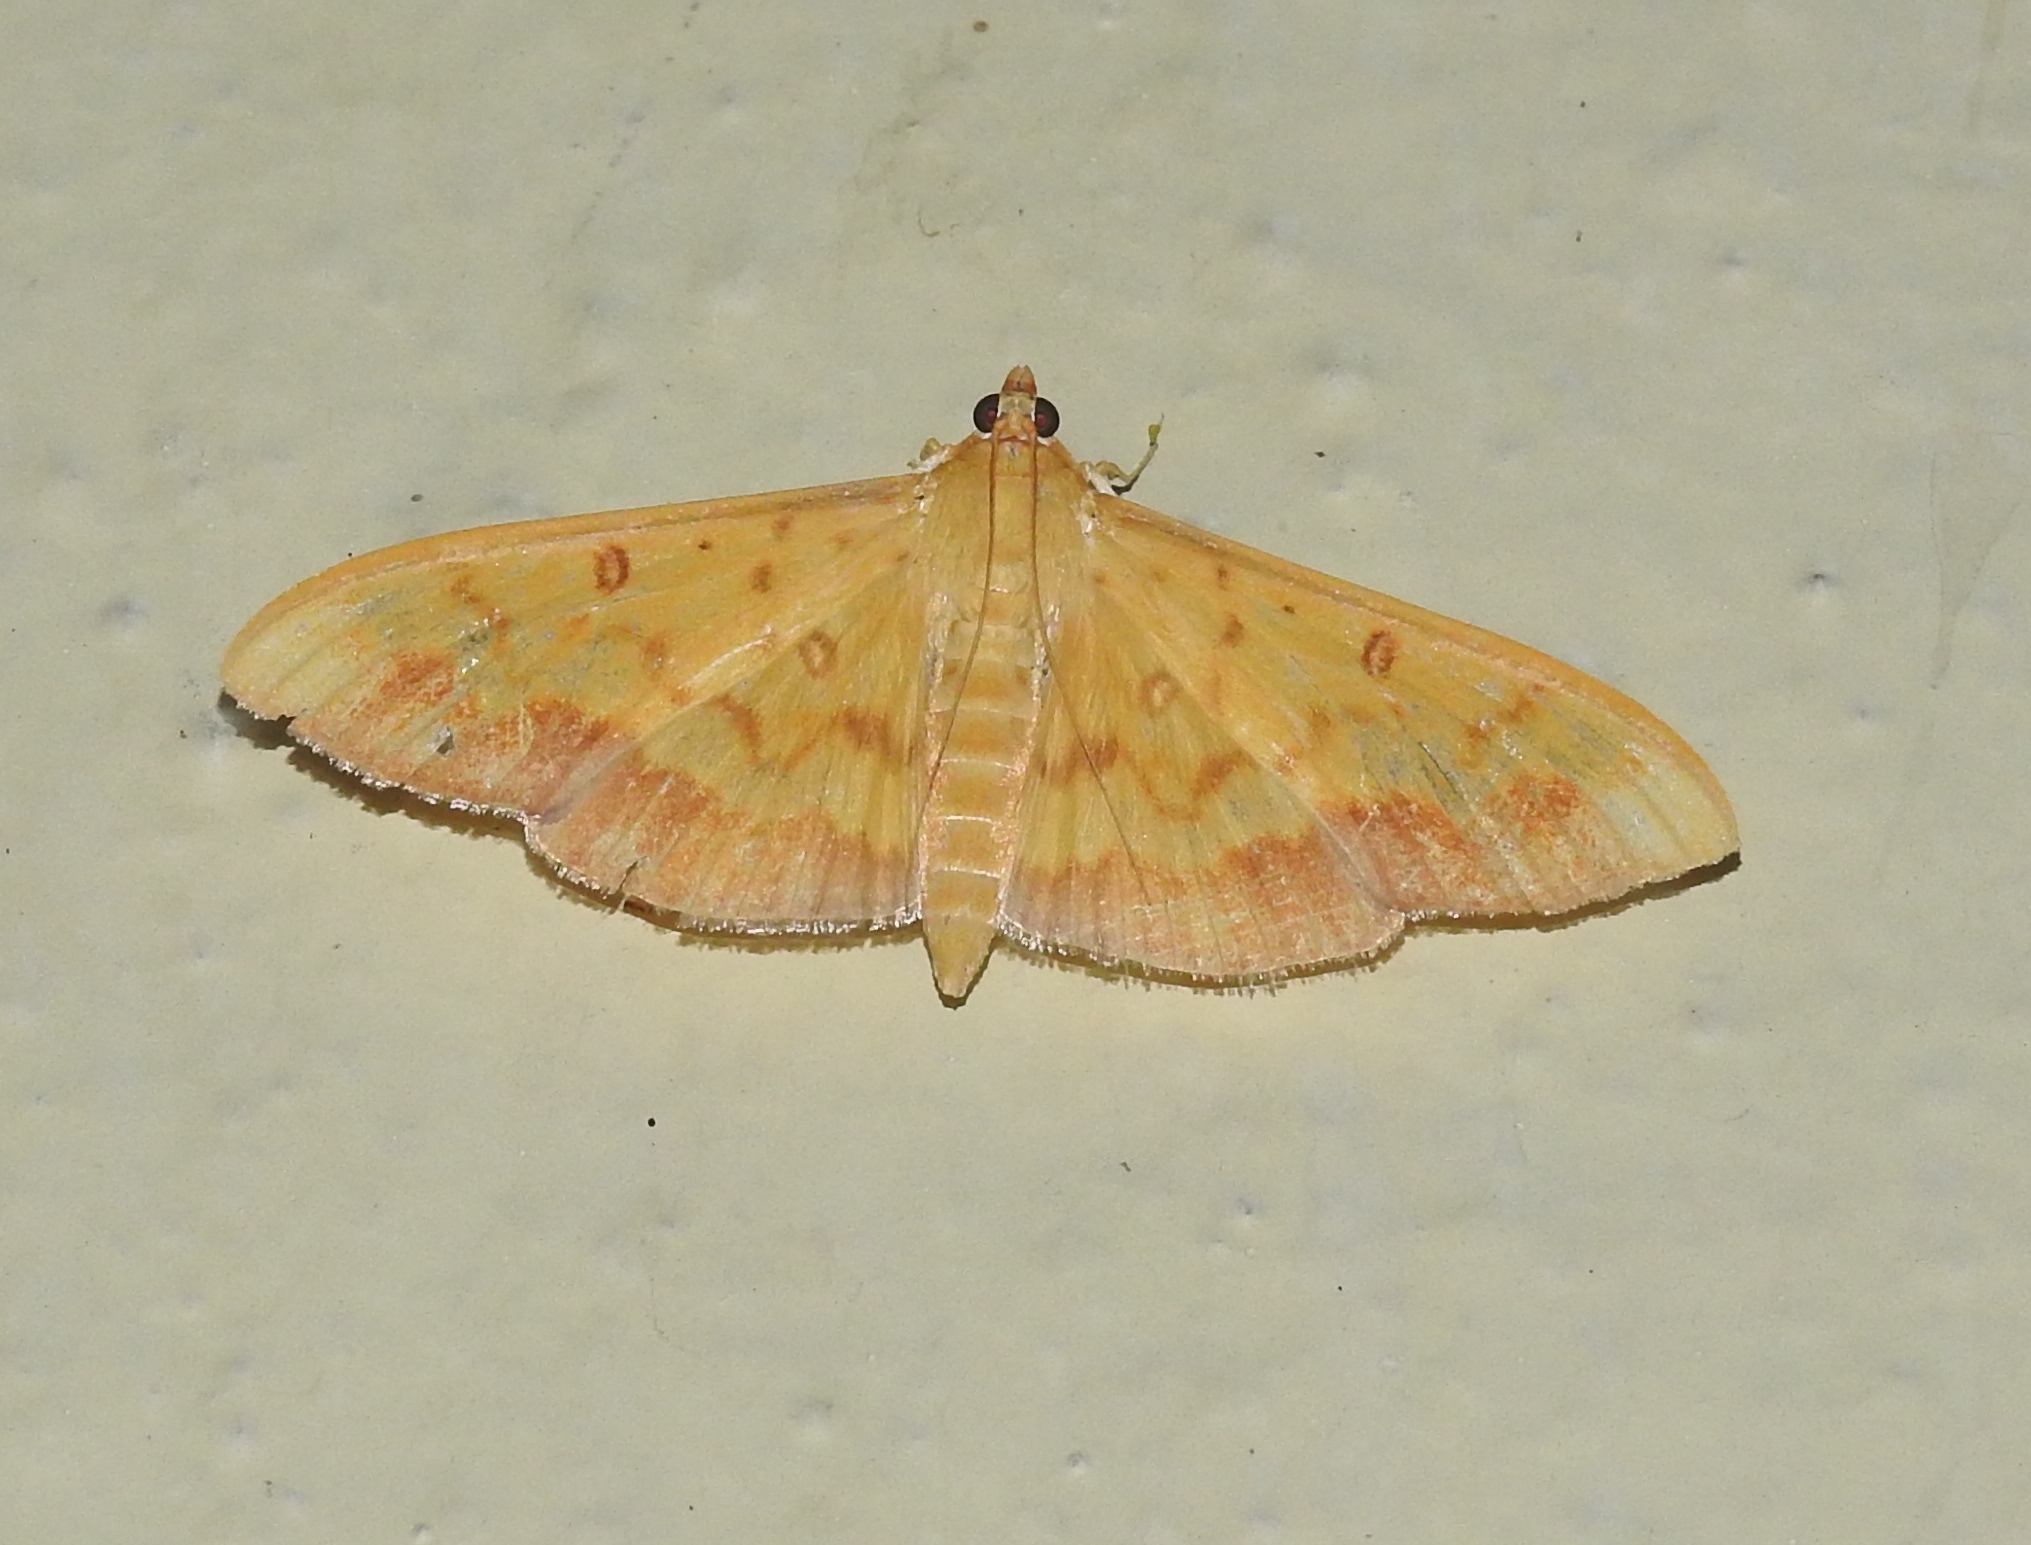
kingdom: Animalia
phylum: Arthropoda
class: Insecta
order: Lepidoptera
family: Crambidae
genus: Botyodes
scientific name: Botyodes asialis
